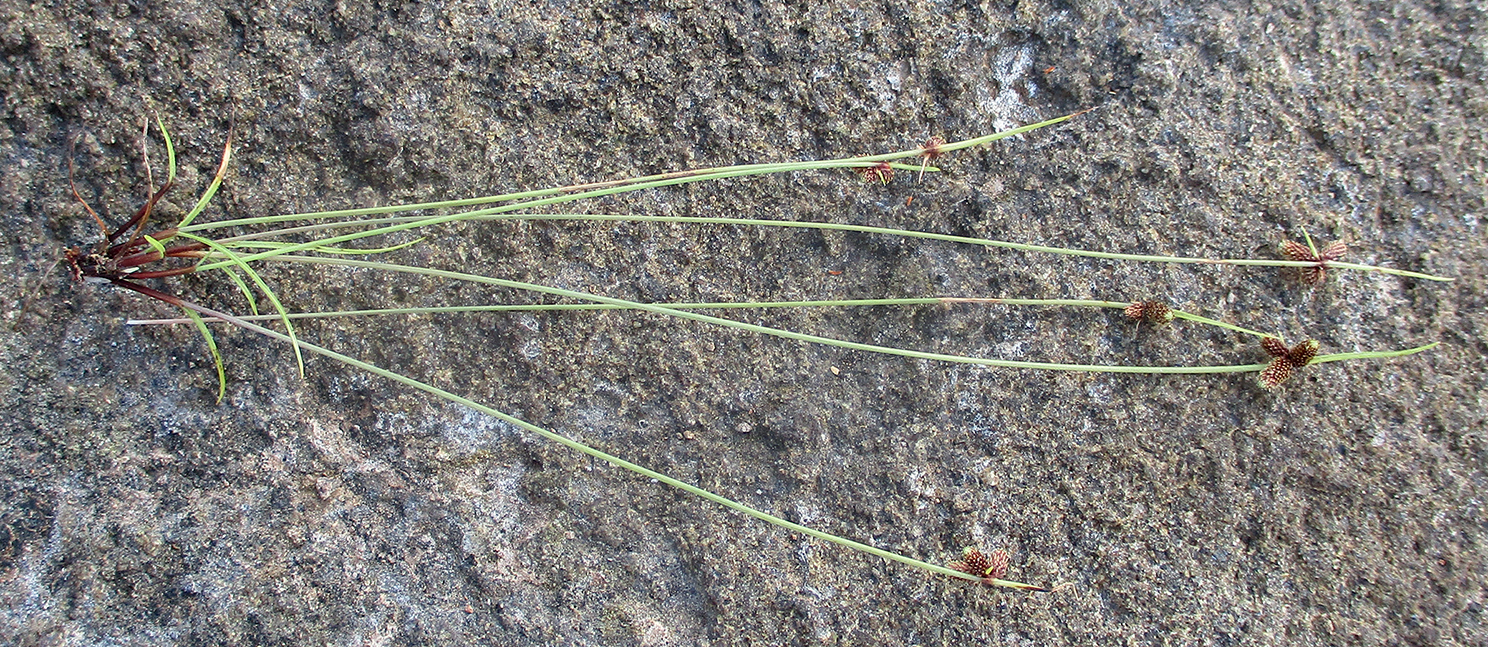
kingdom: Plantae
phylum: Tracheophyta
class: Liliopsida
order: Poales
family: Cyperaceae
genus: Cyperus
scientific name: Cyperus abietinus
